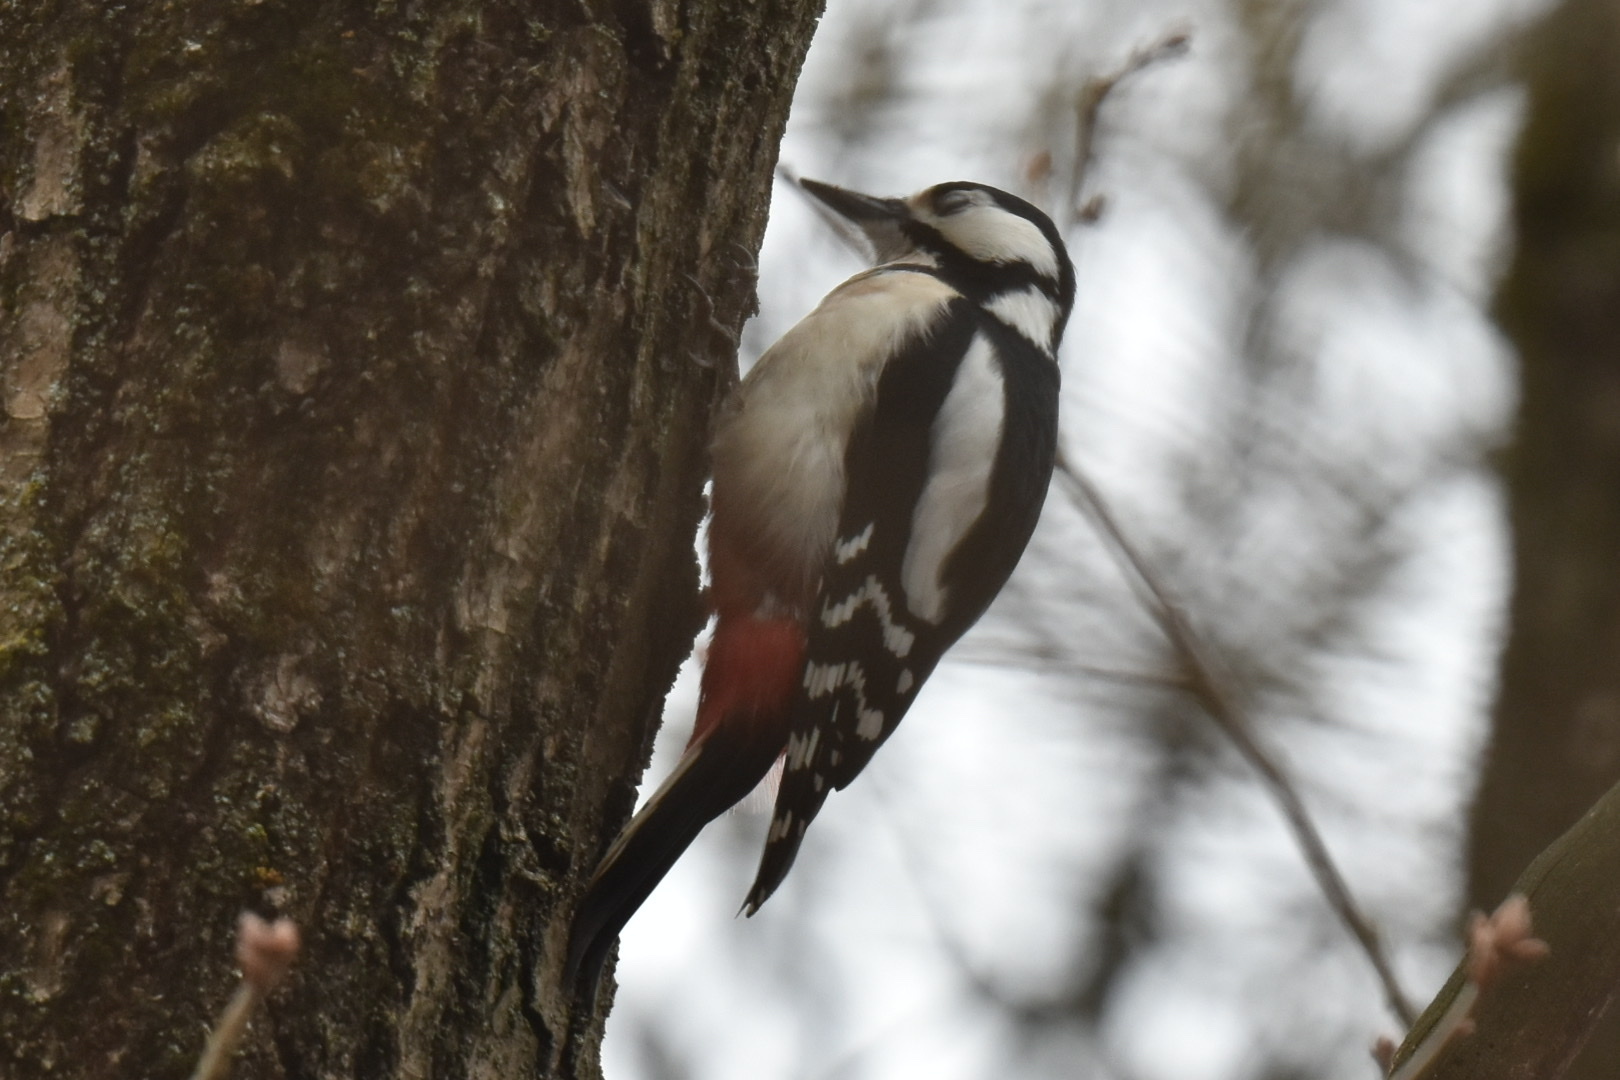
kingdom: Animalia
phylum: Chordata
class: Aves
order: Piciformes
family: Picidae
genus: Dendrocopos
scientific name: Dendrocopos major
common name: Great spotted woodpecker
